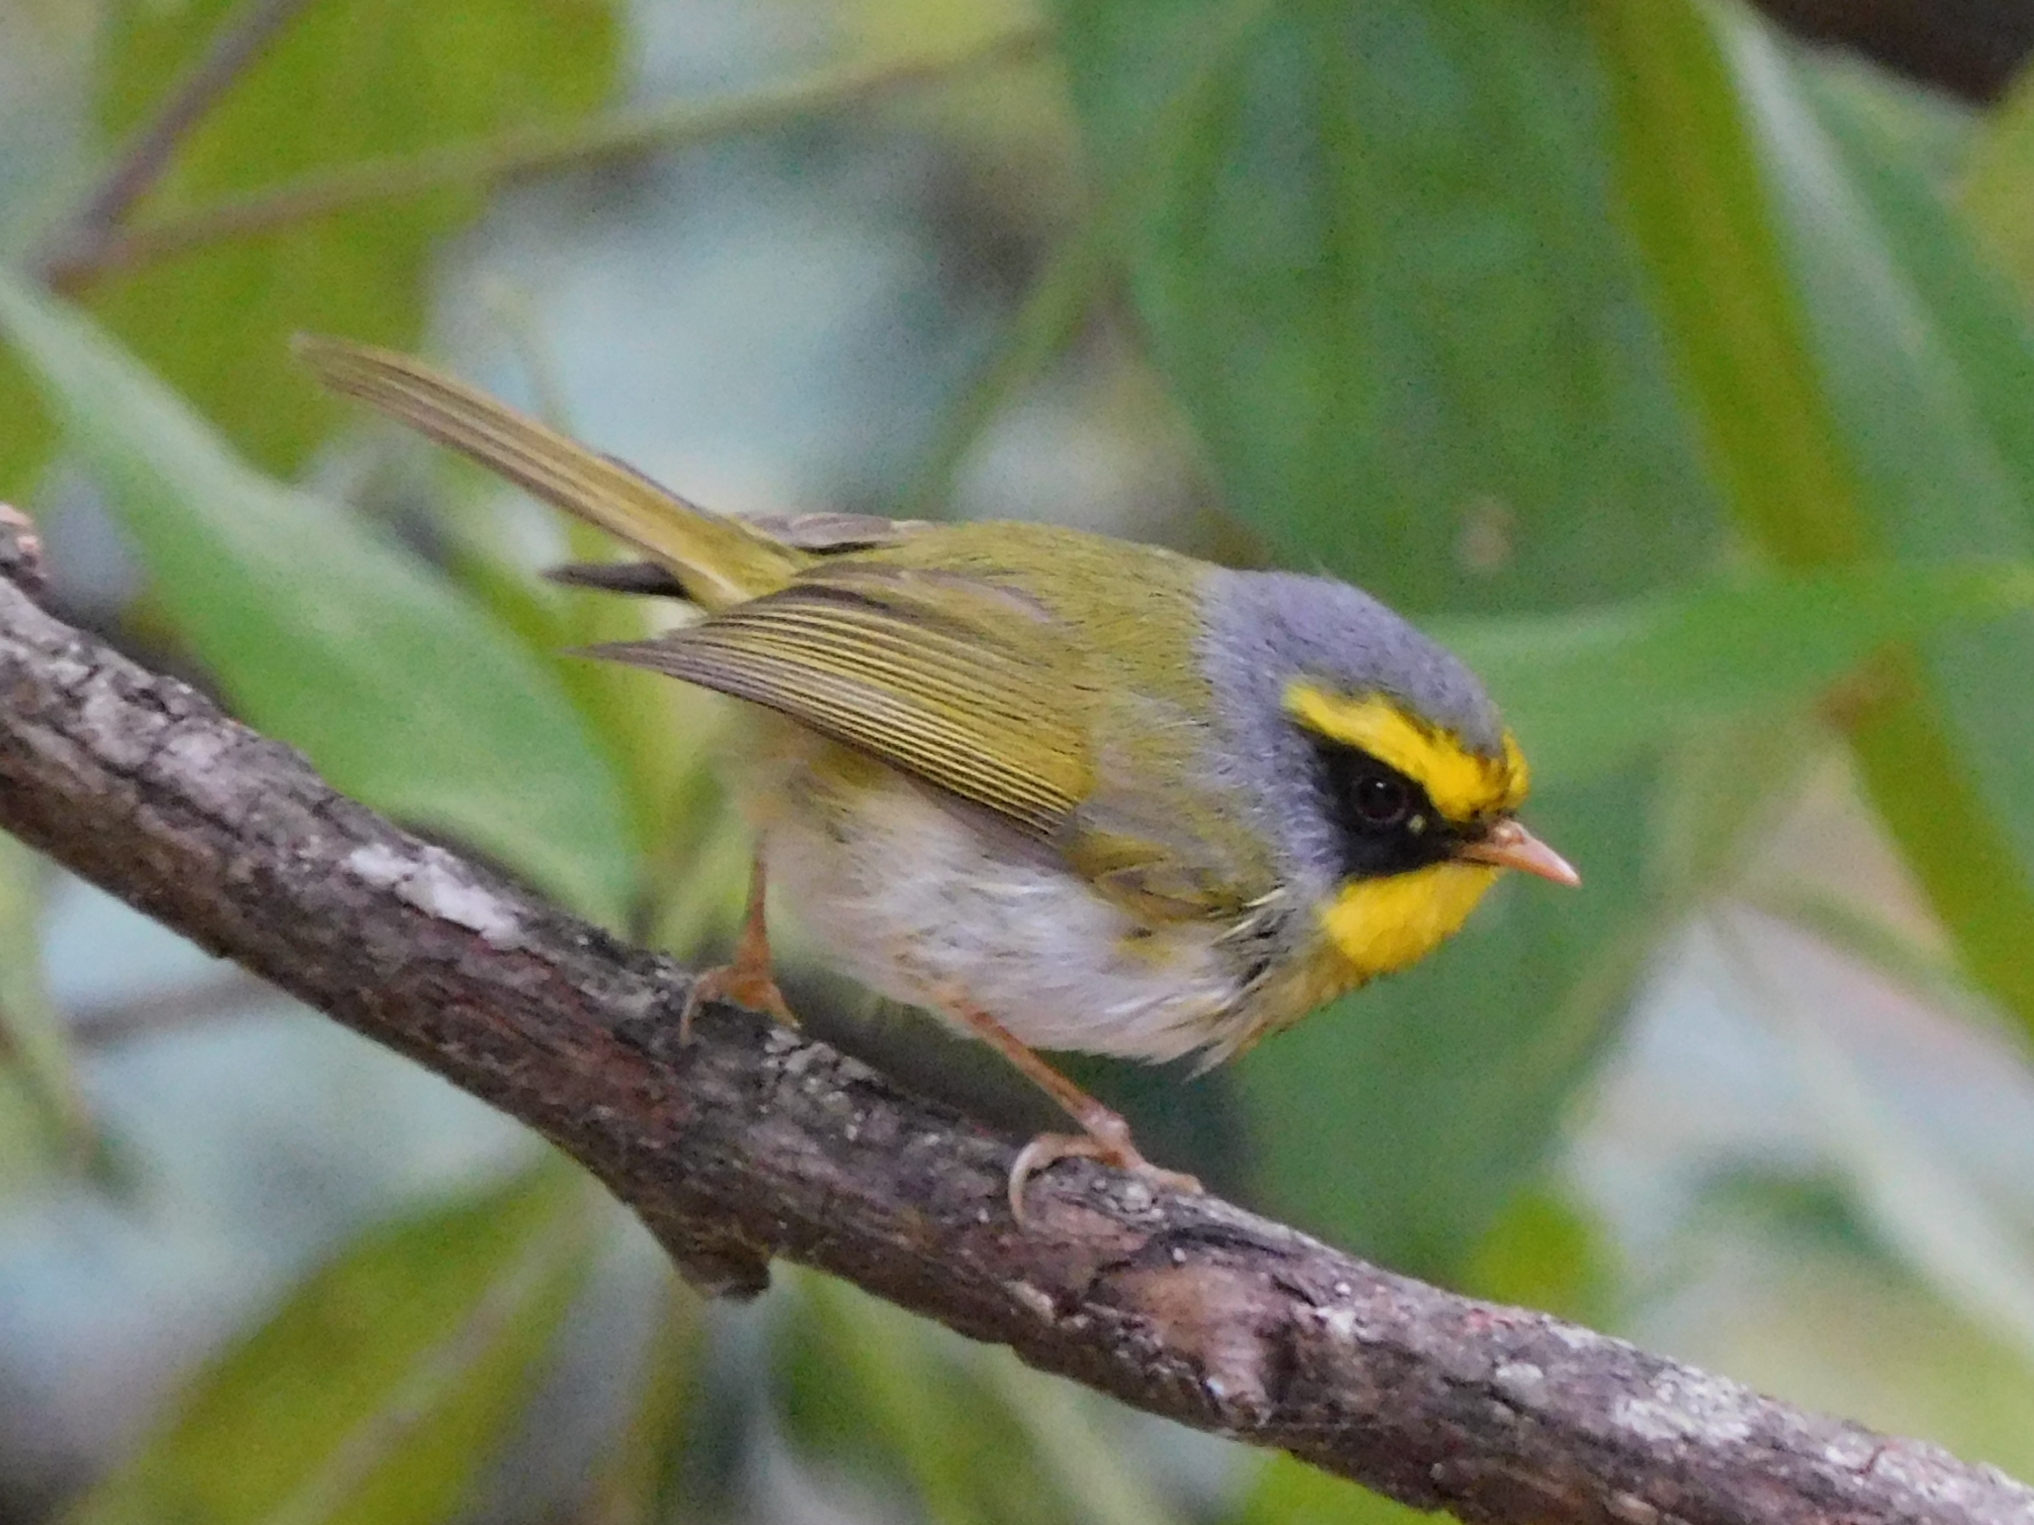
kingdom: Animalia
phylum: Chordata
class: Aves
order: Passeriformes
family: Stenostiridae
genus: Chelidorhynx
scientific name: Chelidorhynx hypoxantha
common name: Yellow-bellied fantail
